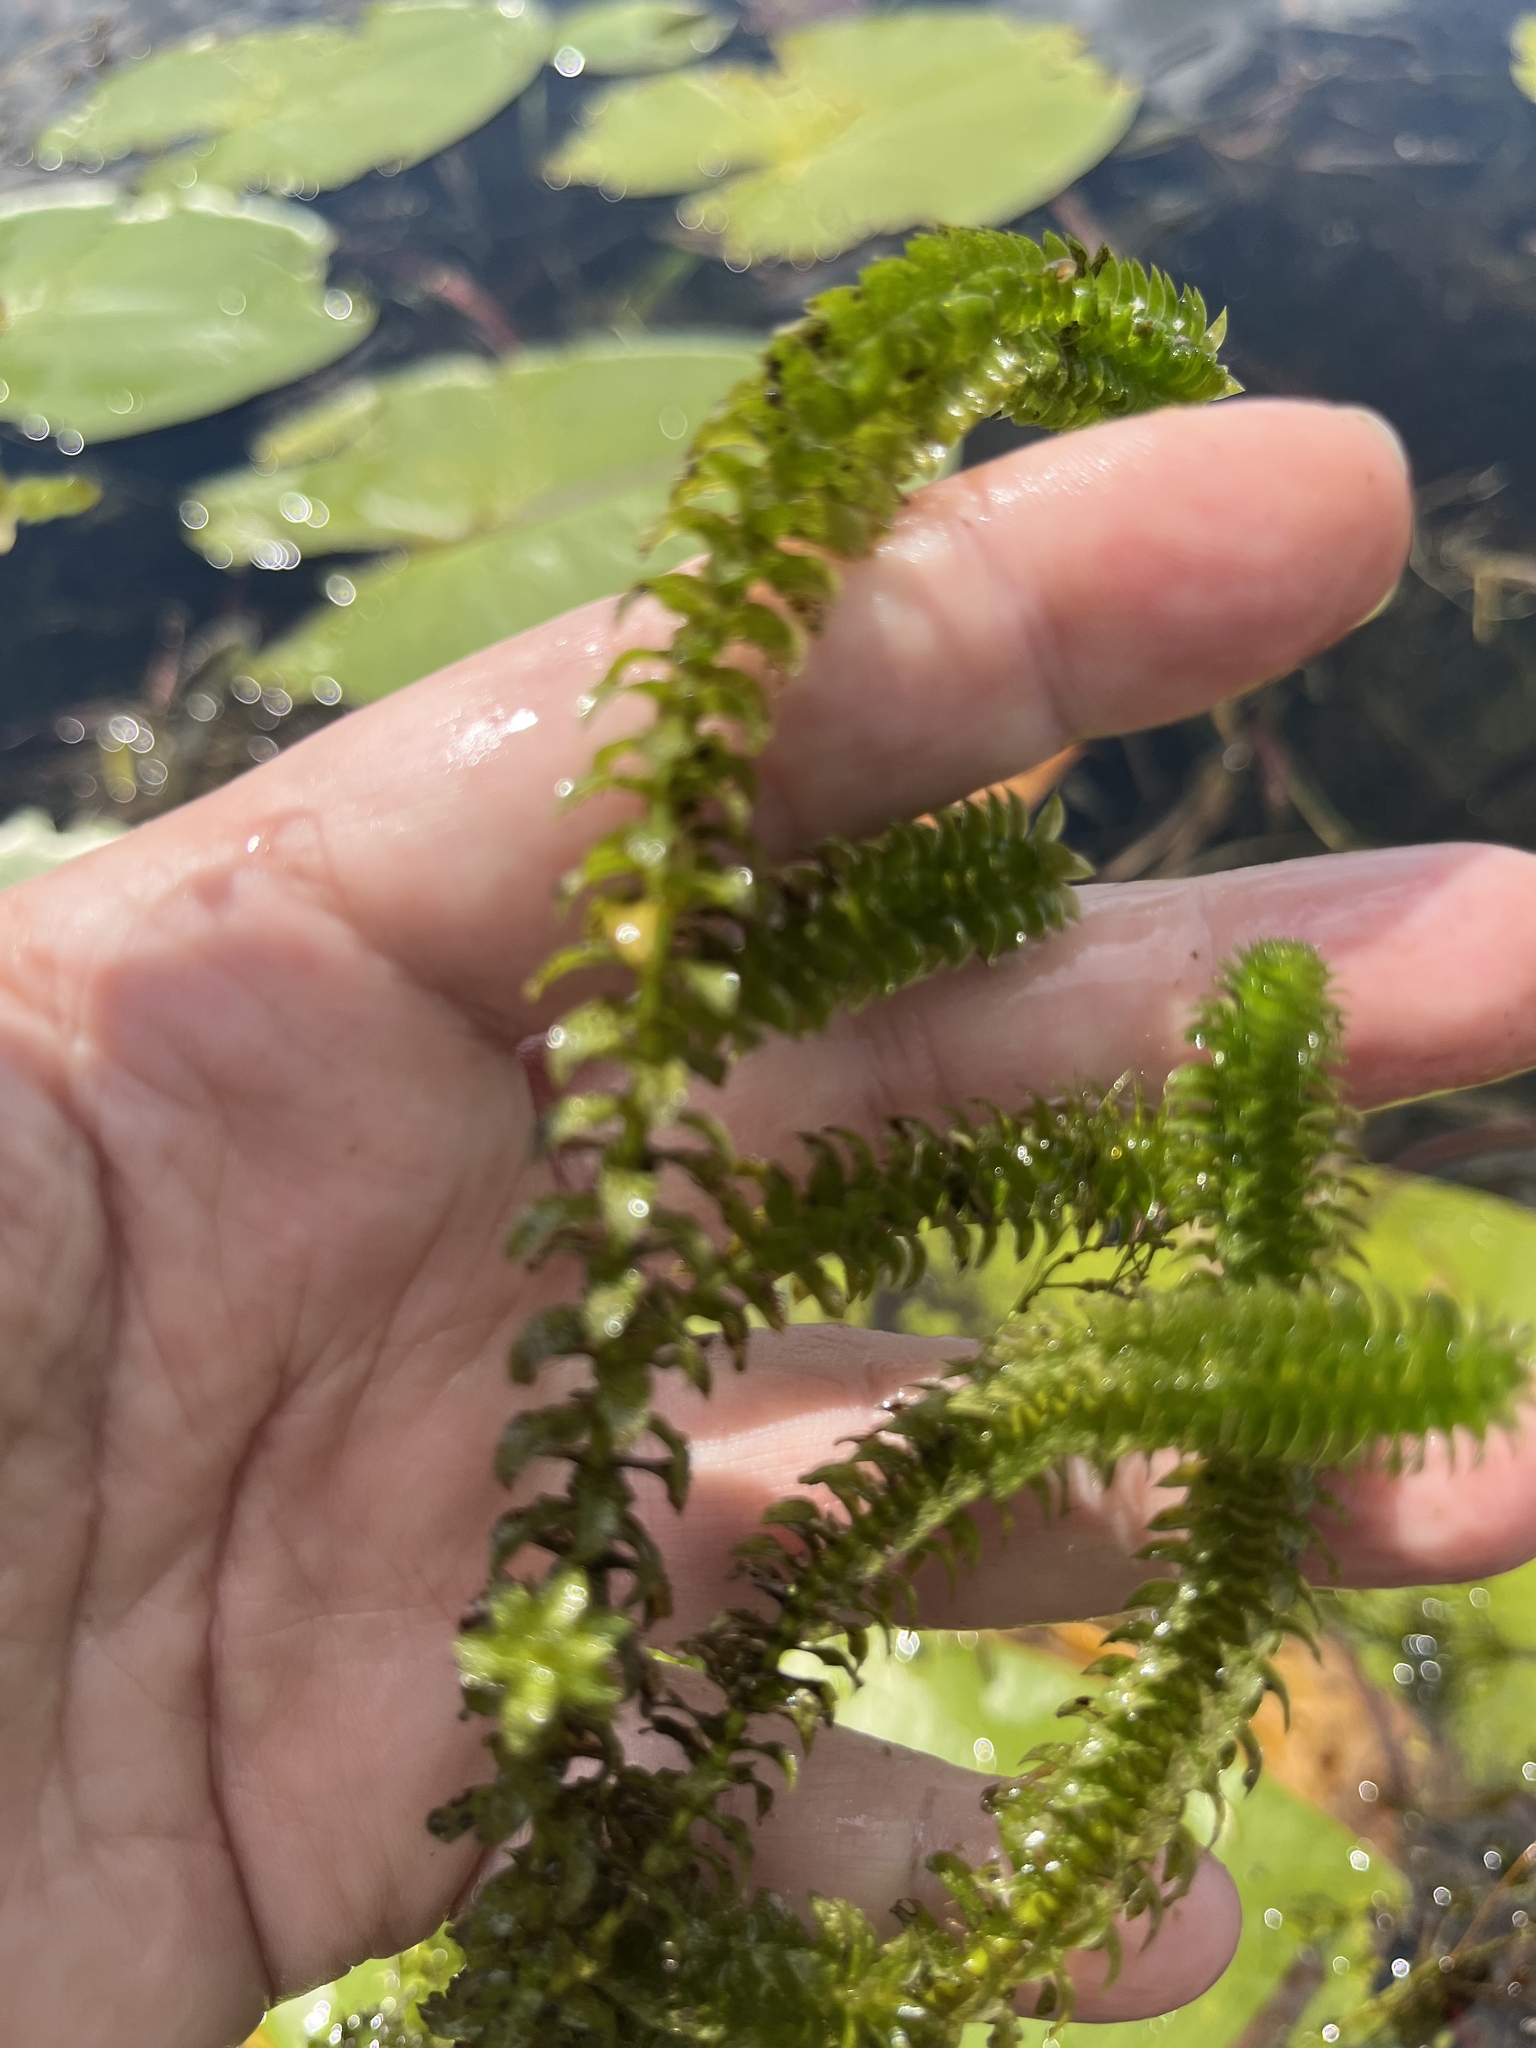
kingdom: Plantae
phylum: Tracheophyta
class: Liliopsida
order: Alismatales
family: Hydrocharitaceae
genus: Elodea
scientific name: Elodea canadensis
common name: Canadian waterweed
